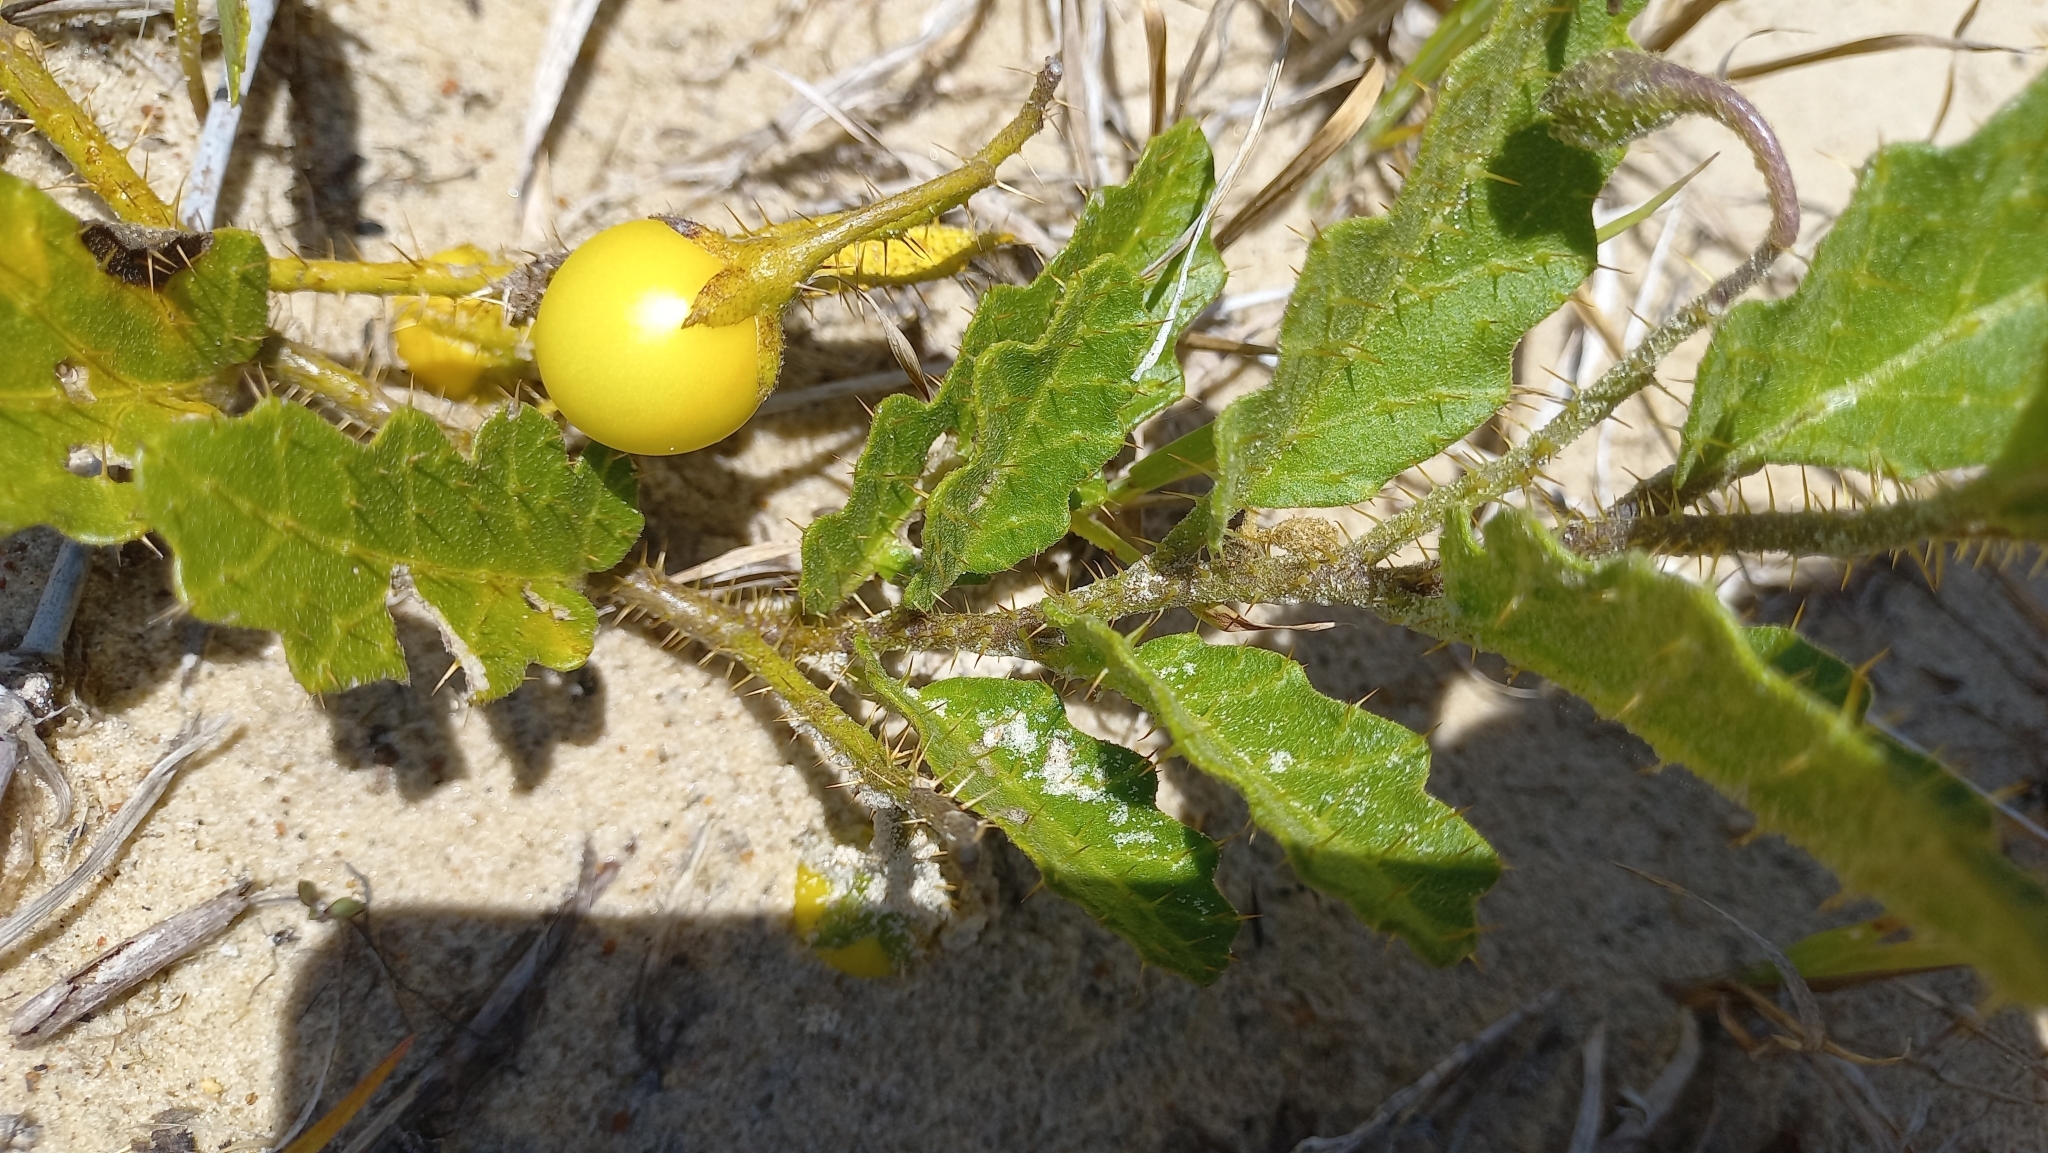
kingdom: Plantae
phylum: Tracheophyta
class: Magnoliopsida
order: Solanales
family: Solanaceae
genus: Solanum
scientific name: Solanum reineckii
